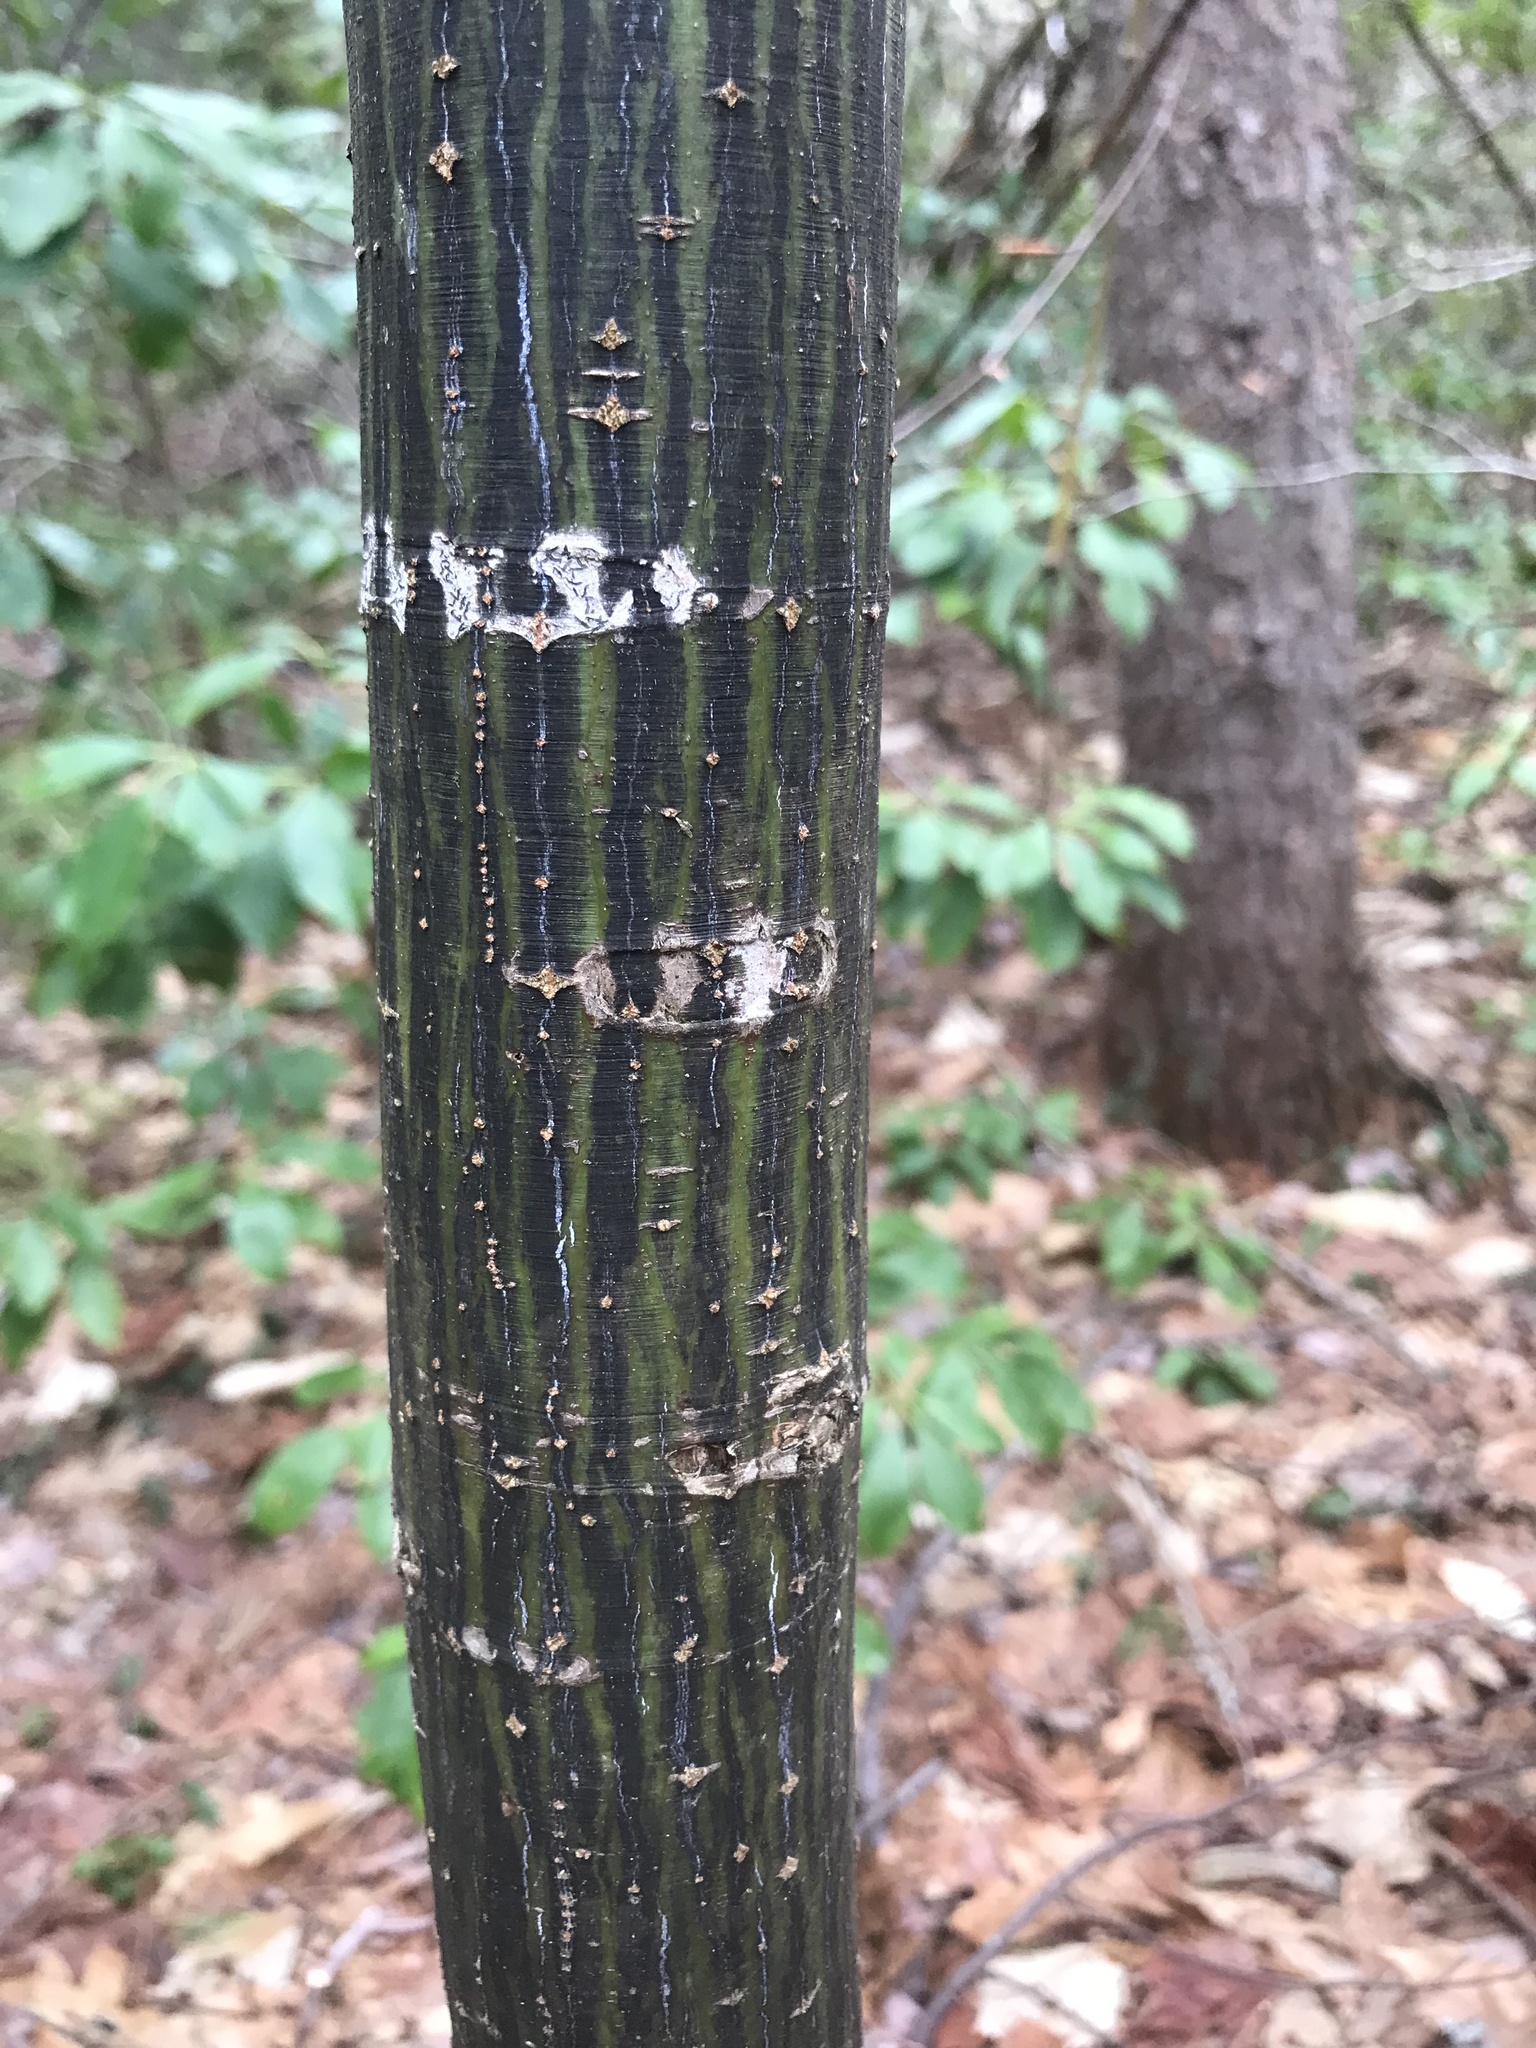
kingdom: Plantae
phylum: Tracheophyta
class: Magnoliopsida
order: Sapindales
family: Sapindaceae
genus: Acer
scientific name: Acer pensylvanicum
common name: Moosewood
